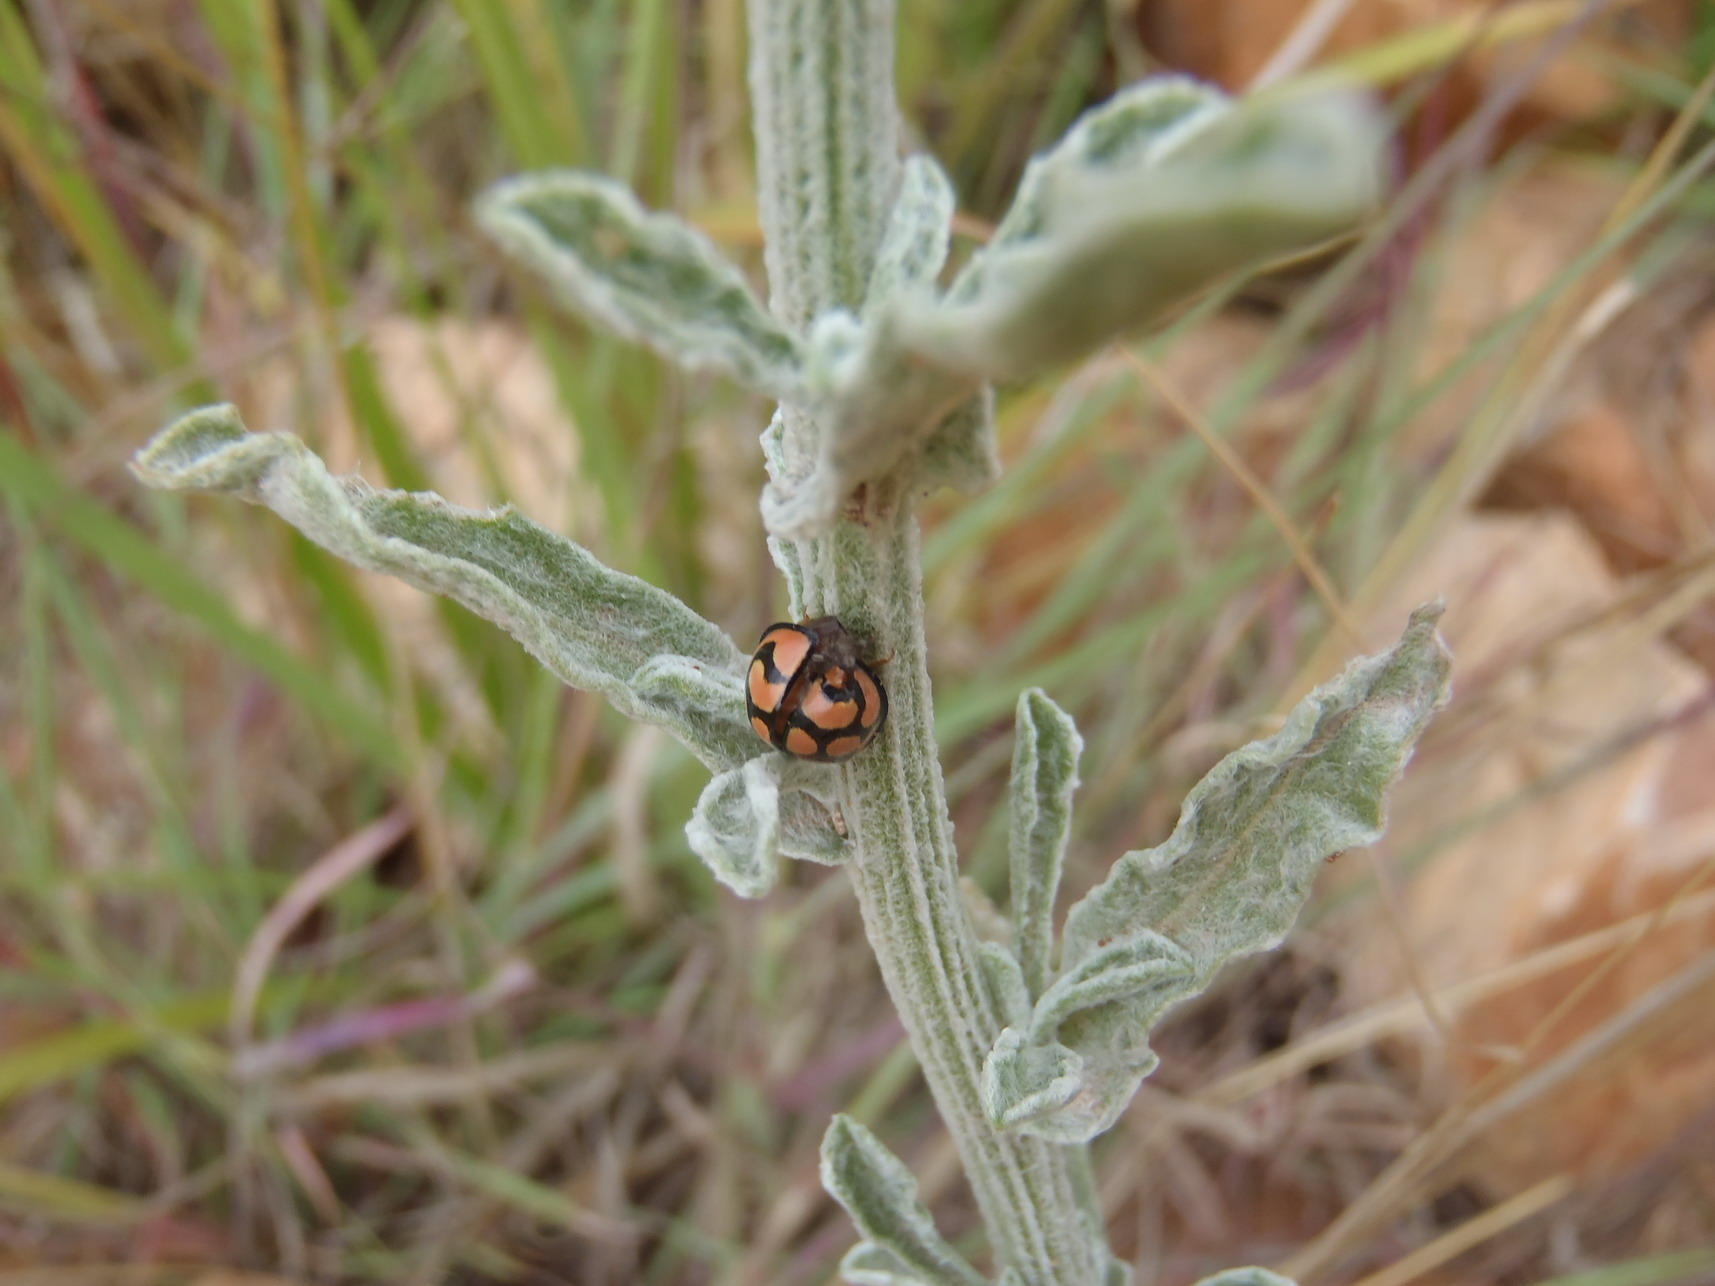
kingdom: Plantae
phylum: Tracheophyta
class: Magnoliopsida
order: Asterales
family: Asteraceae
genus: Nidorella
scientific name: Nidorella hottentotica
